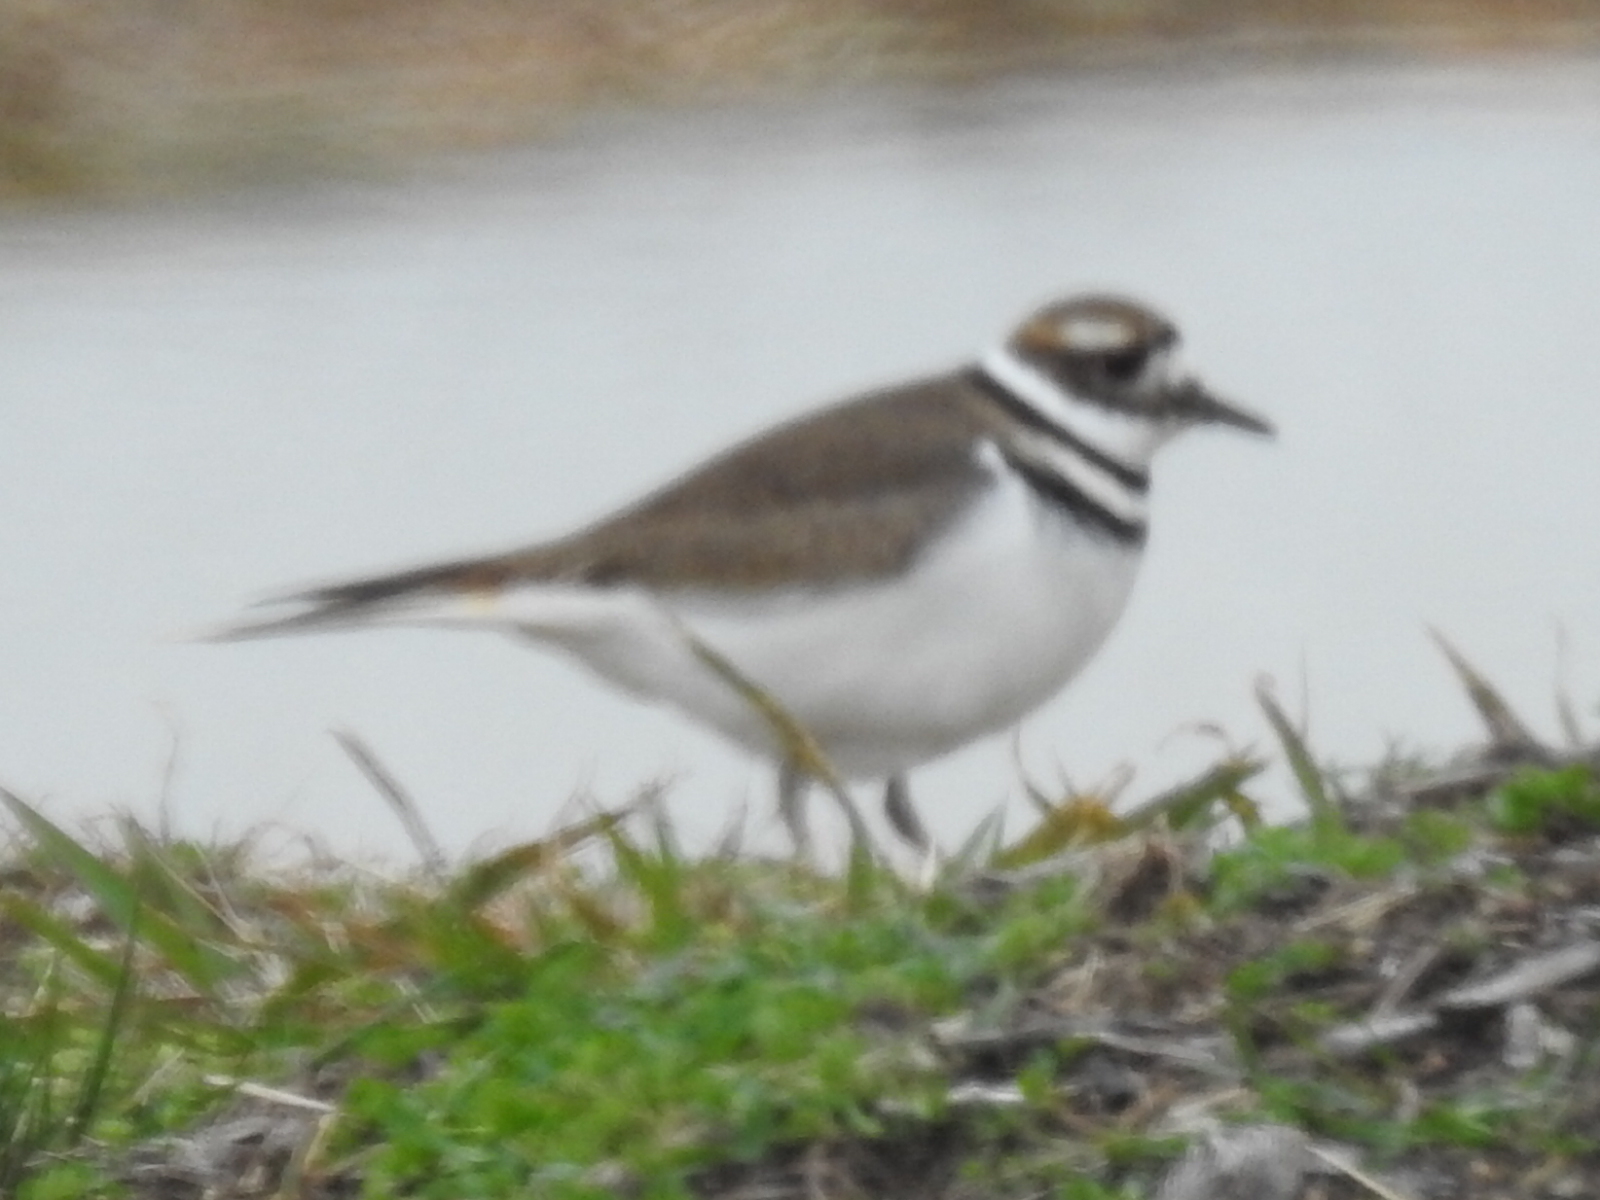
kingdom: Animalia
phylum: Chordata
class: Aves
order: Charadriiformes
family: Charadriidae
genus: Charadrius
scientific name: Charadrius vociferus
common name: Killdeer
